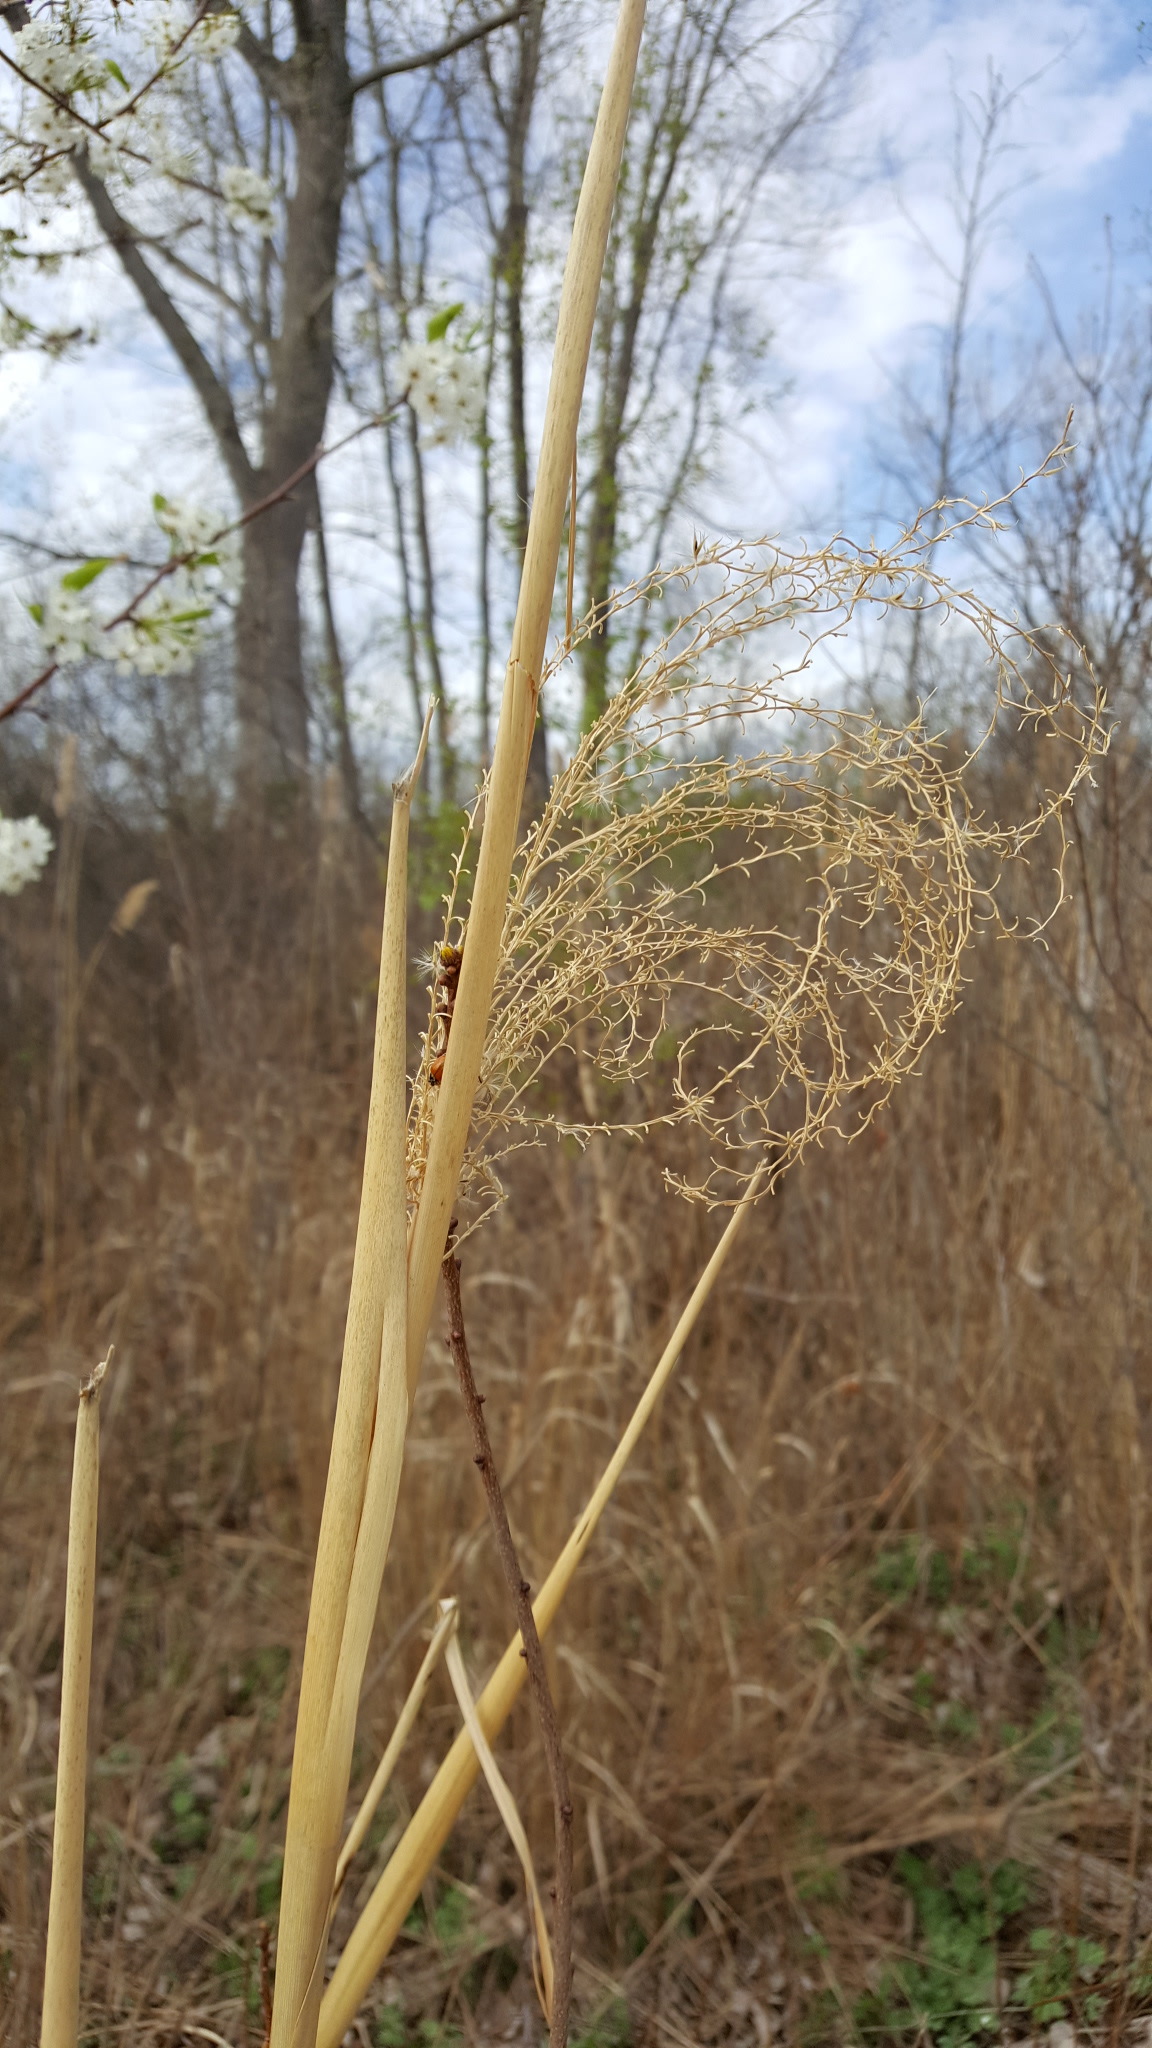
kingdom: Plantae
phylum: Tracheophyta
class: Liliopsida
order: Poales
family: Poaceae
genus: Miscanthus
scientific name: Miscanthus sinensis
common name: Chinese silvergrass
